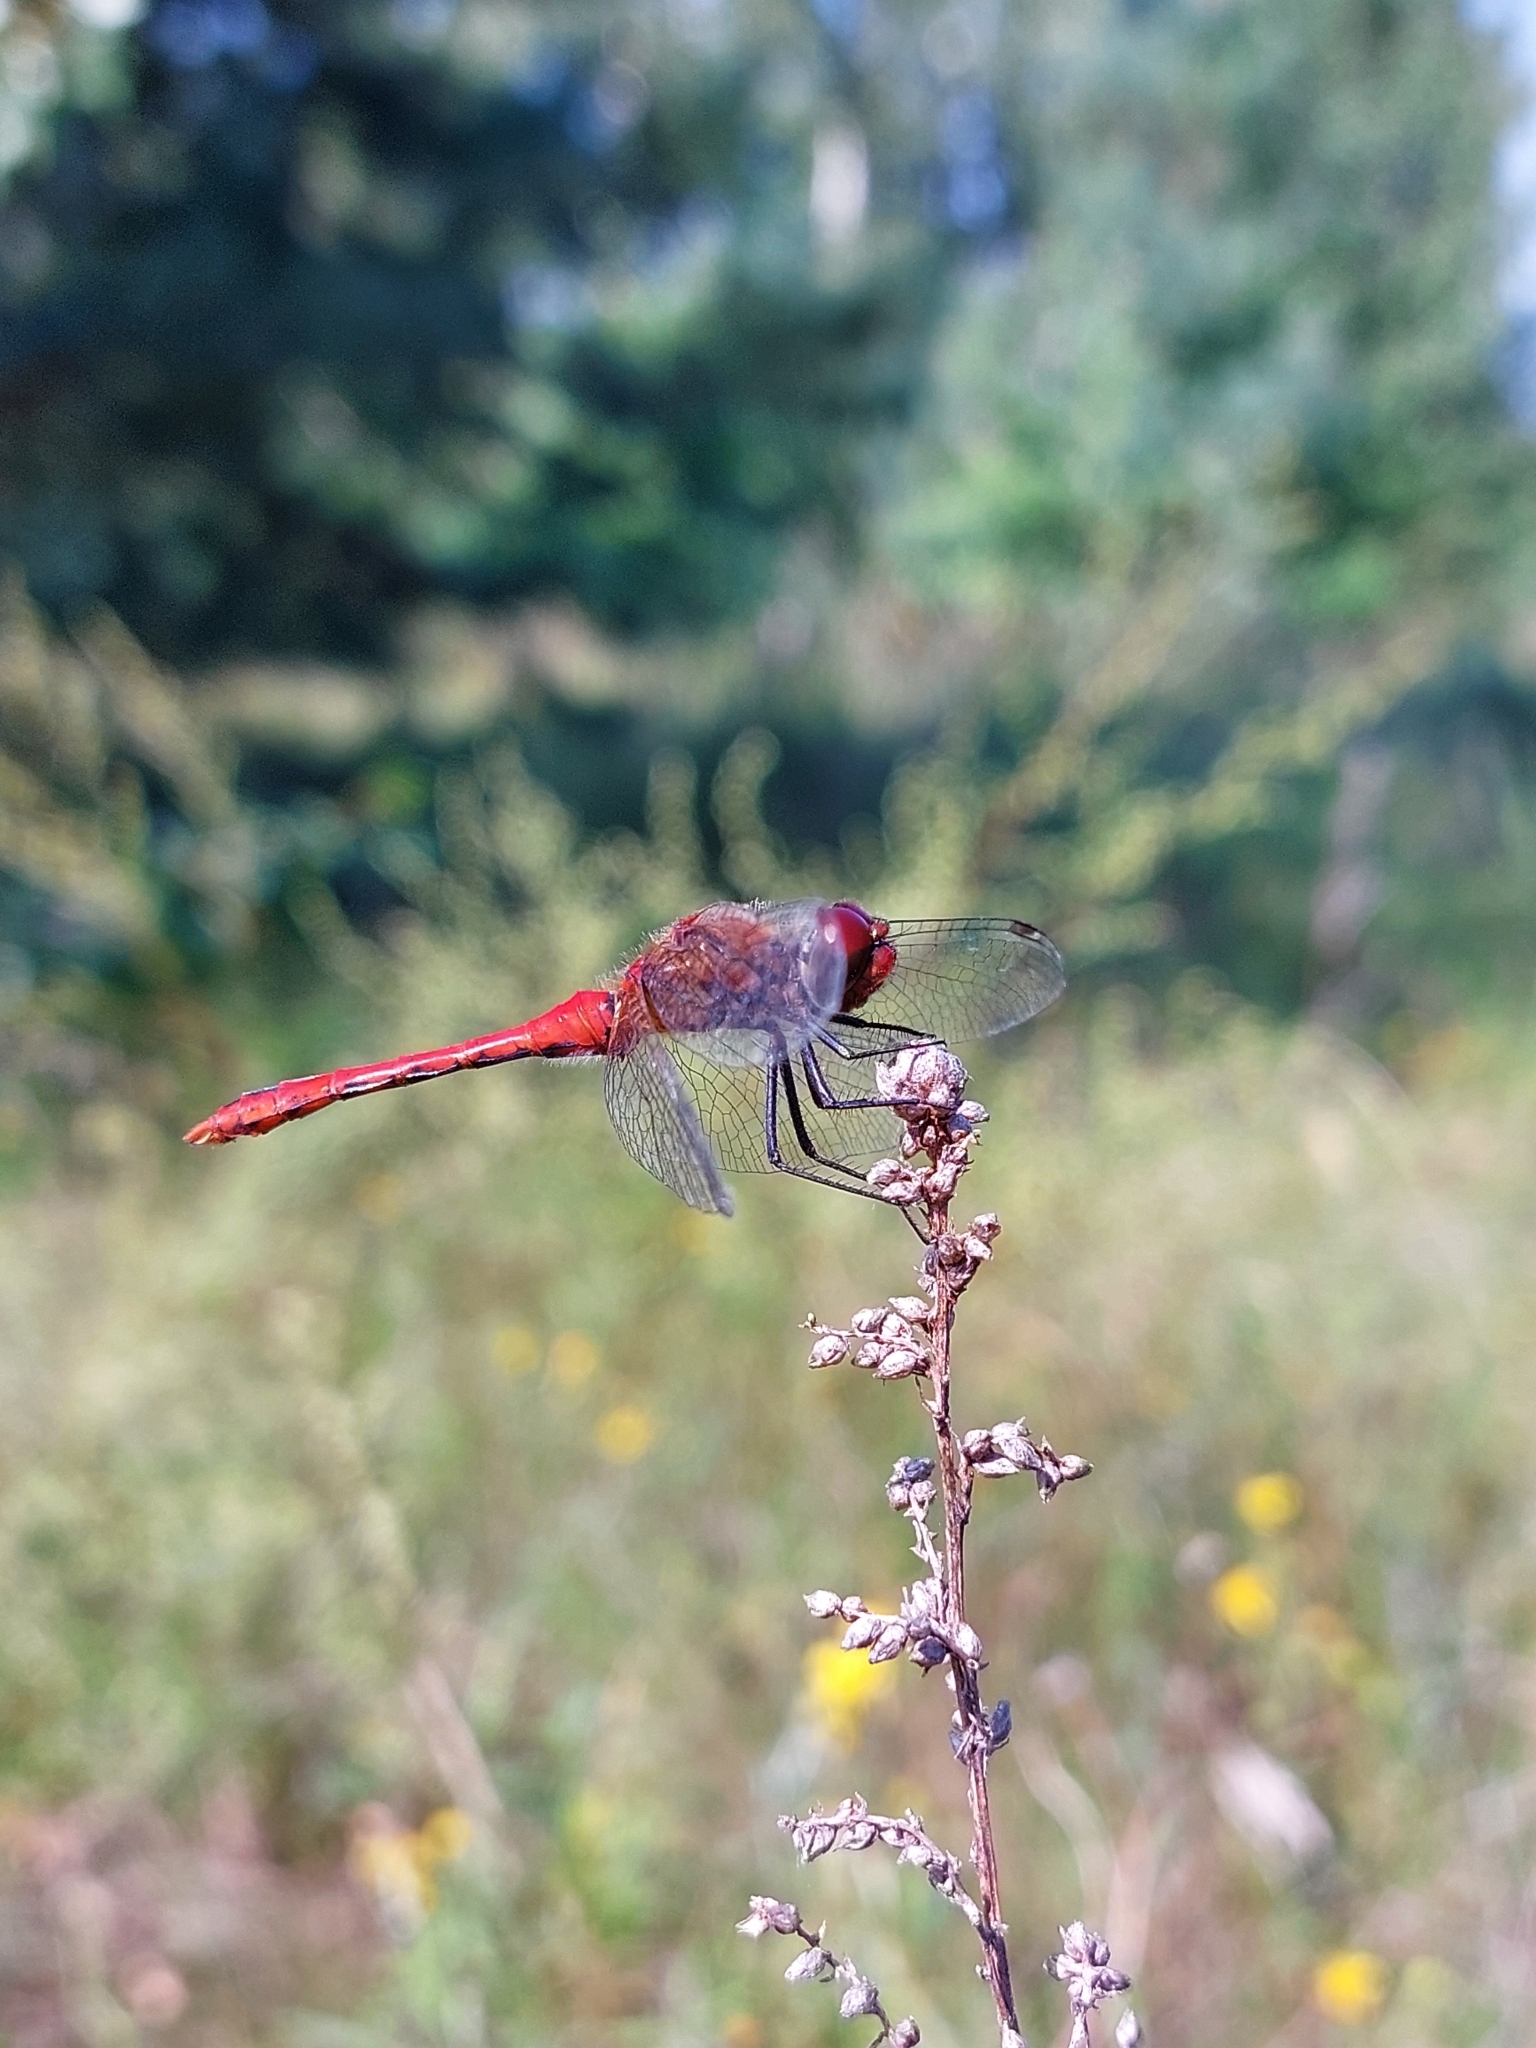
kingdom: Animalia
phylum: Arthropoda
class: Insecta
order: Odonata
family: Libellulidae
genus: Sympetrum
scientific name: Sympetrum sanguineum
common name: Ruddy darter
